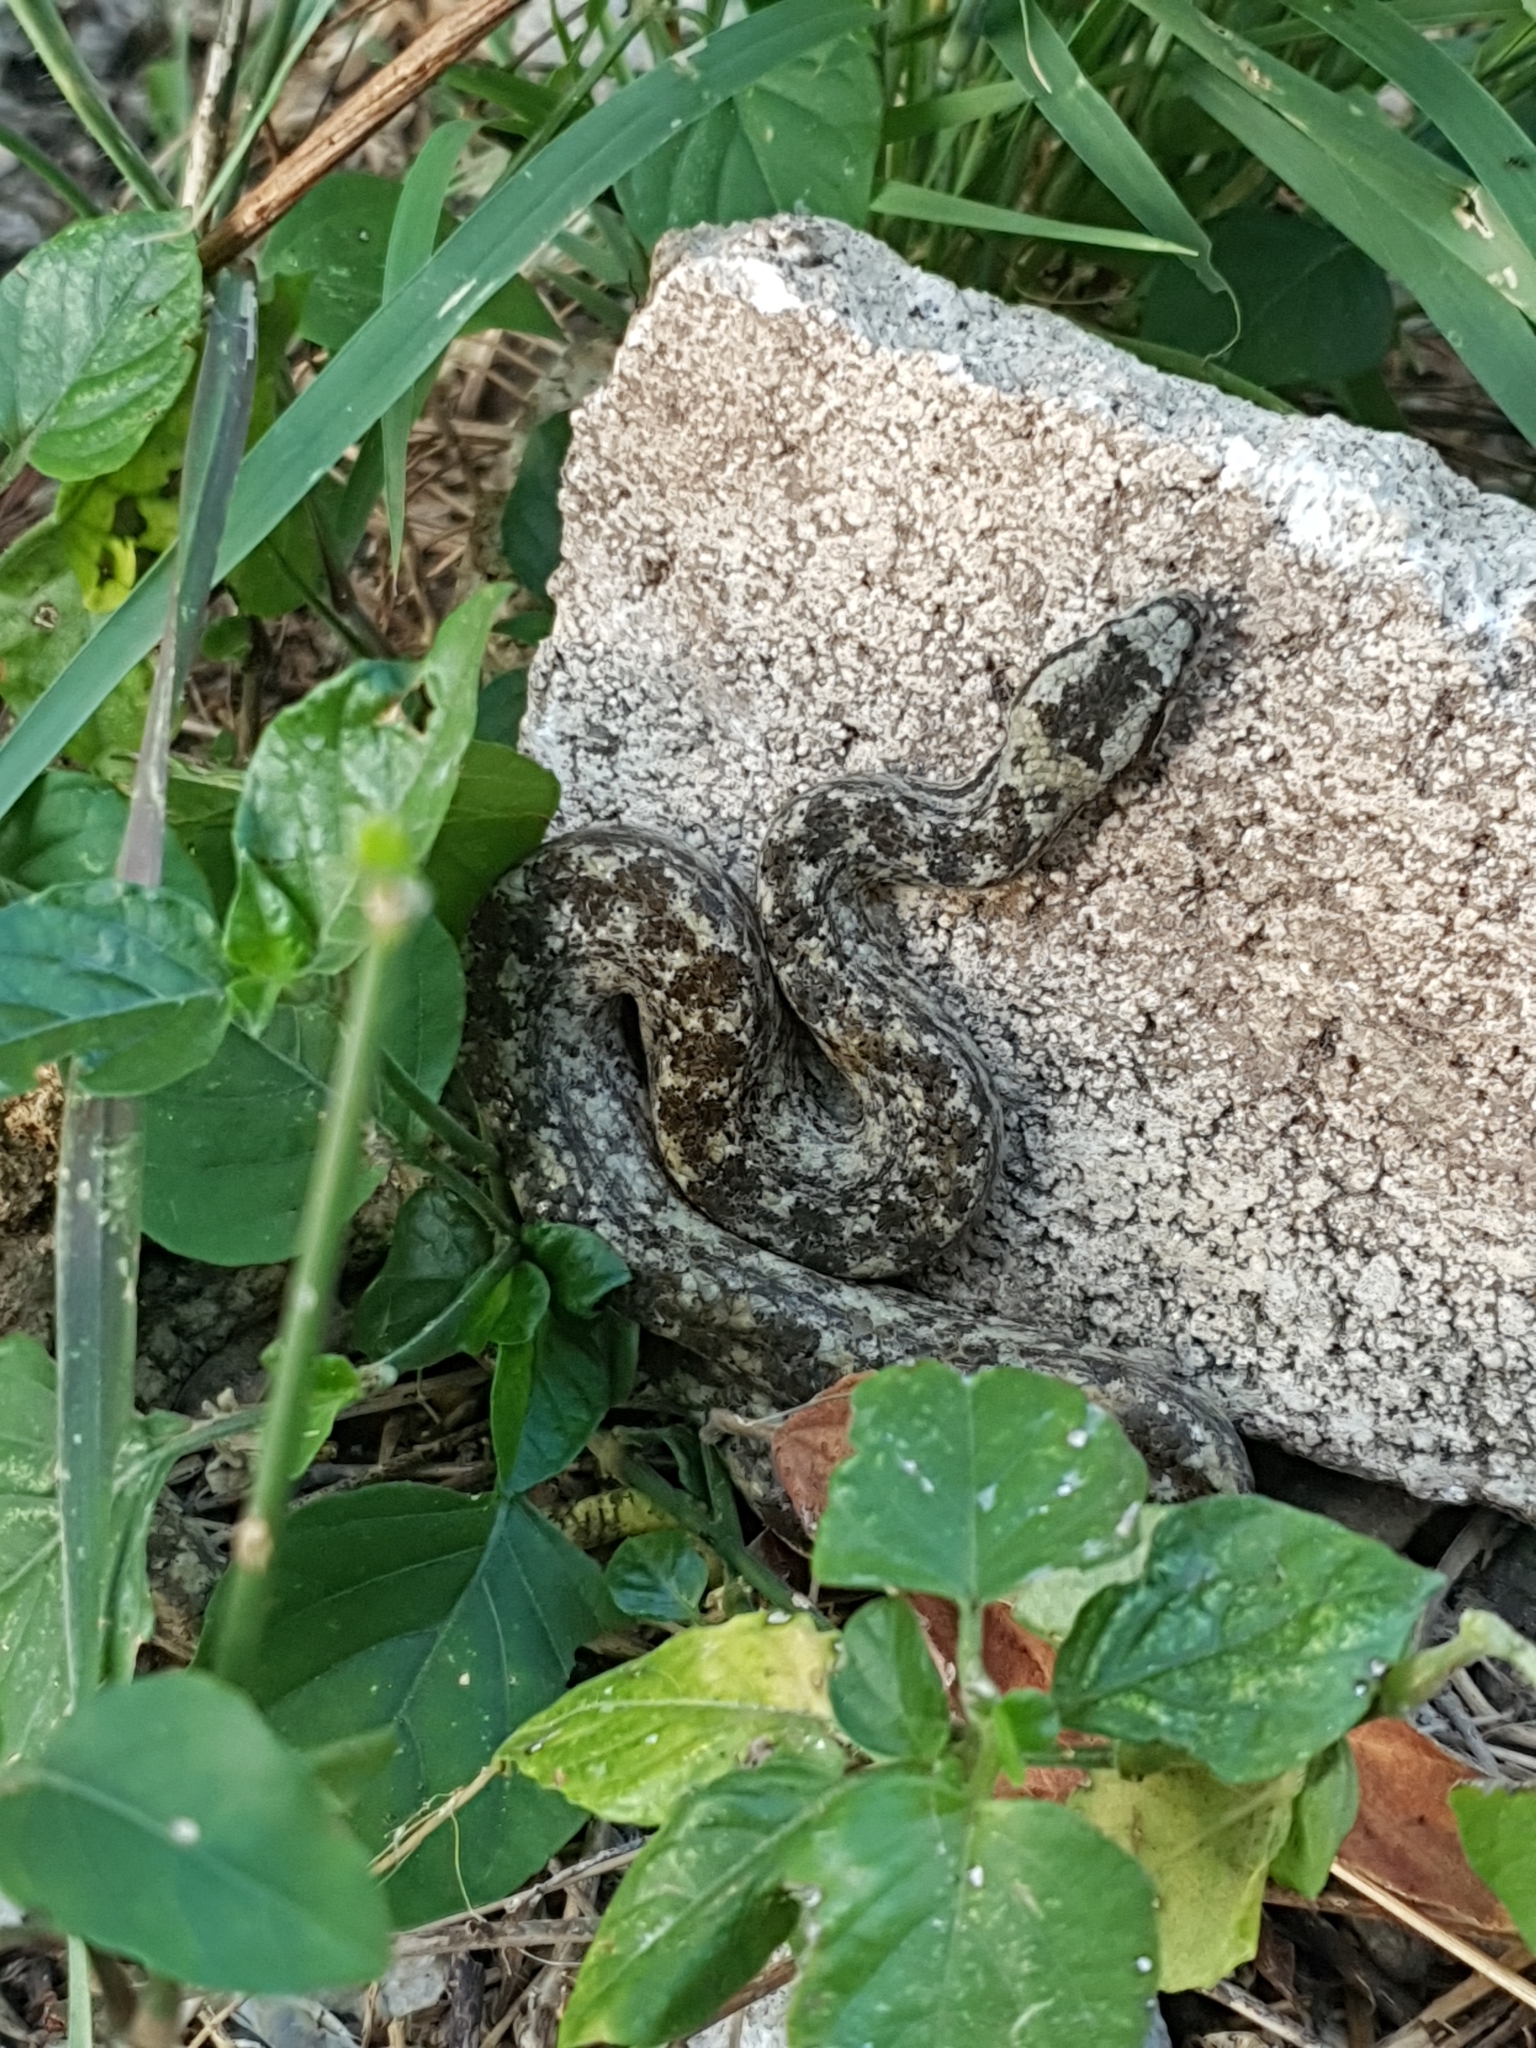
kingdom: Animalia
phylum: Chordata
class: Squamata
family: Tropidophiidae
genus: Tropidophis
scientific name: Tropidophis caymanensis
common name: Cayman islands dwarf boa
